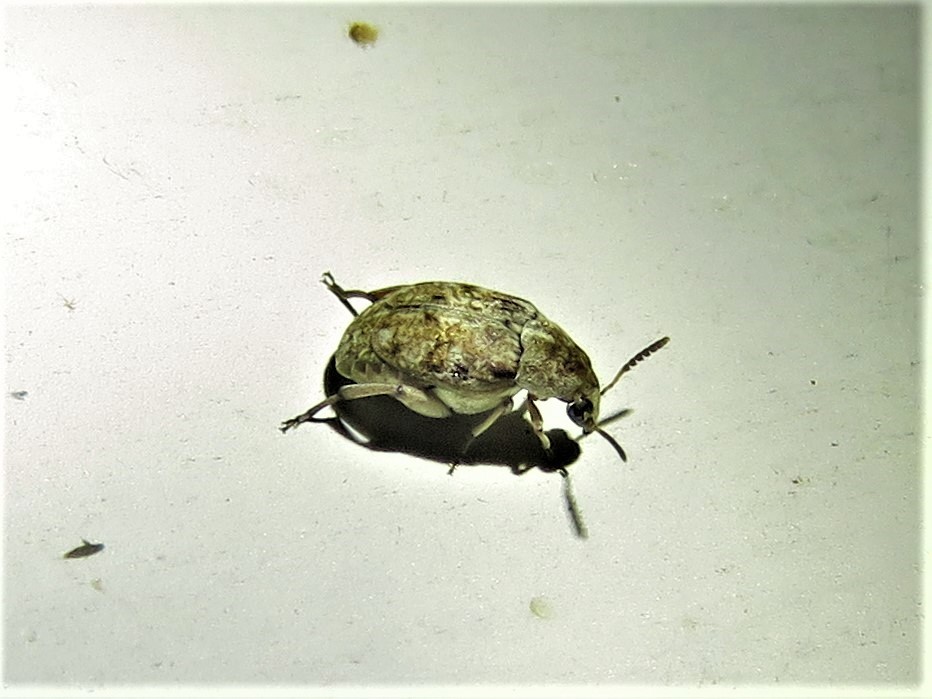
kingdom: Animalia
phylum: Arthropoda
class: Insecta
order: Coleoptera
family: Chrysomelidae
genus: Algarobius
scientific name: Algarobius bottimeri
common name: Kiawe bruchid
